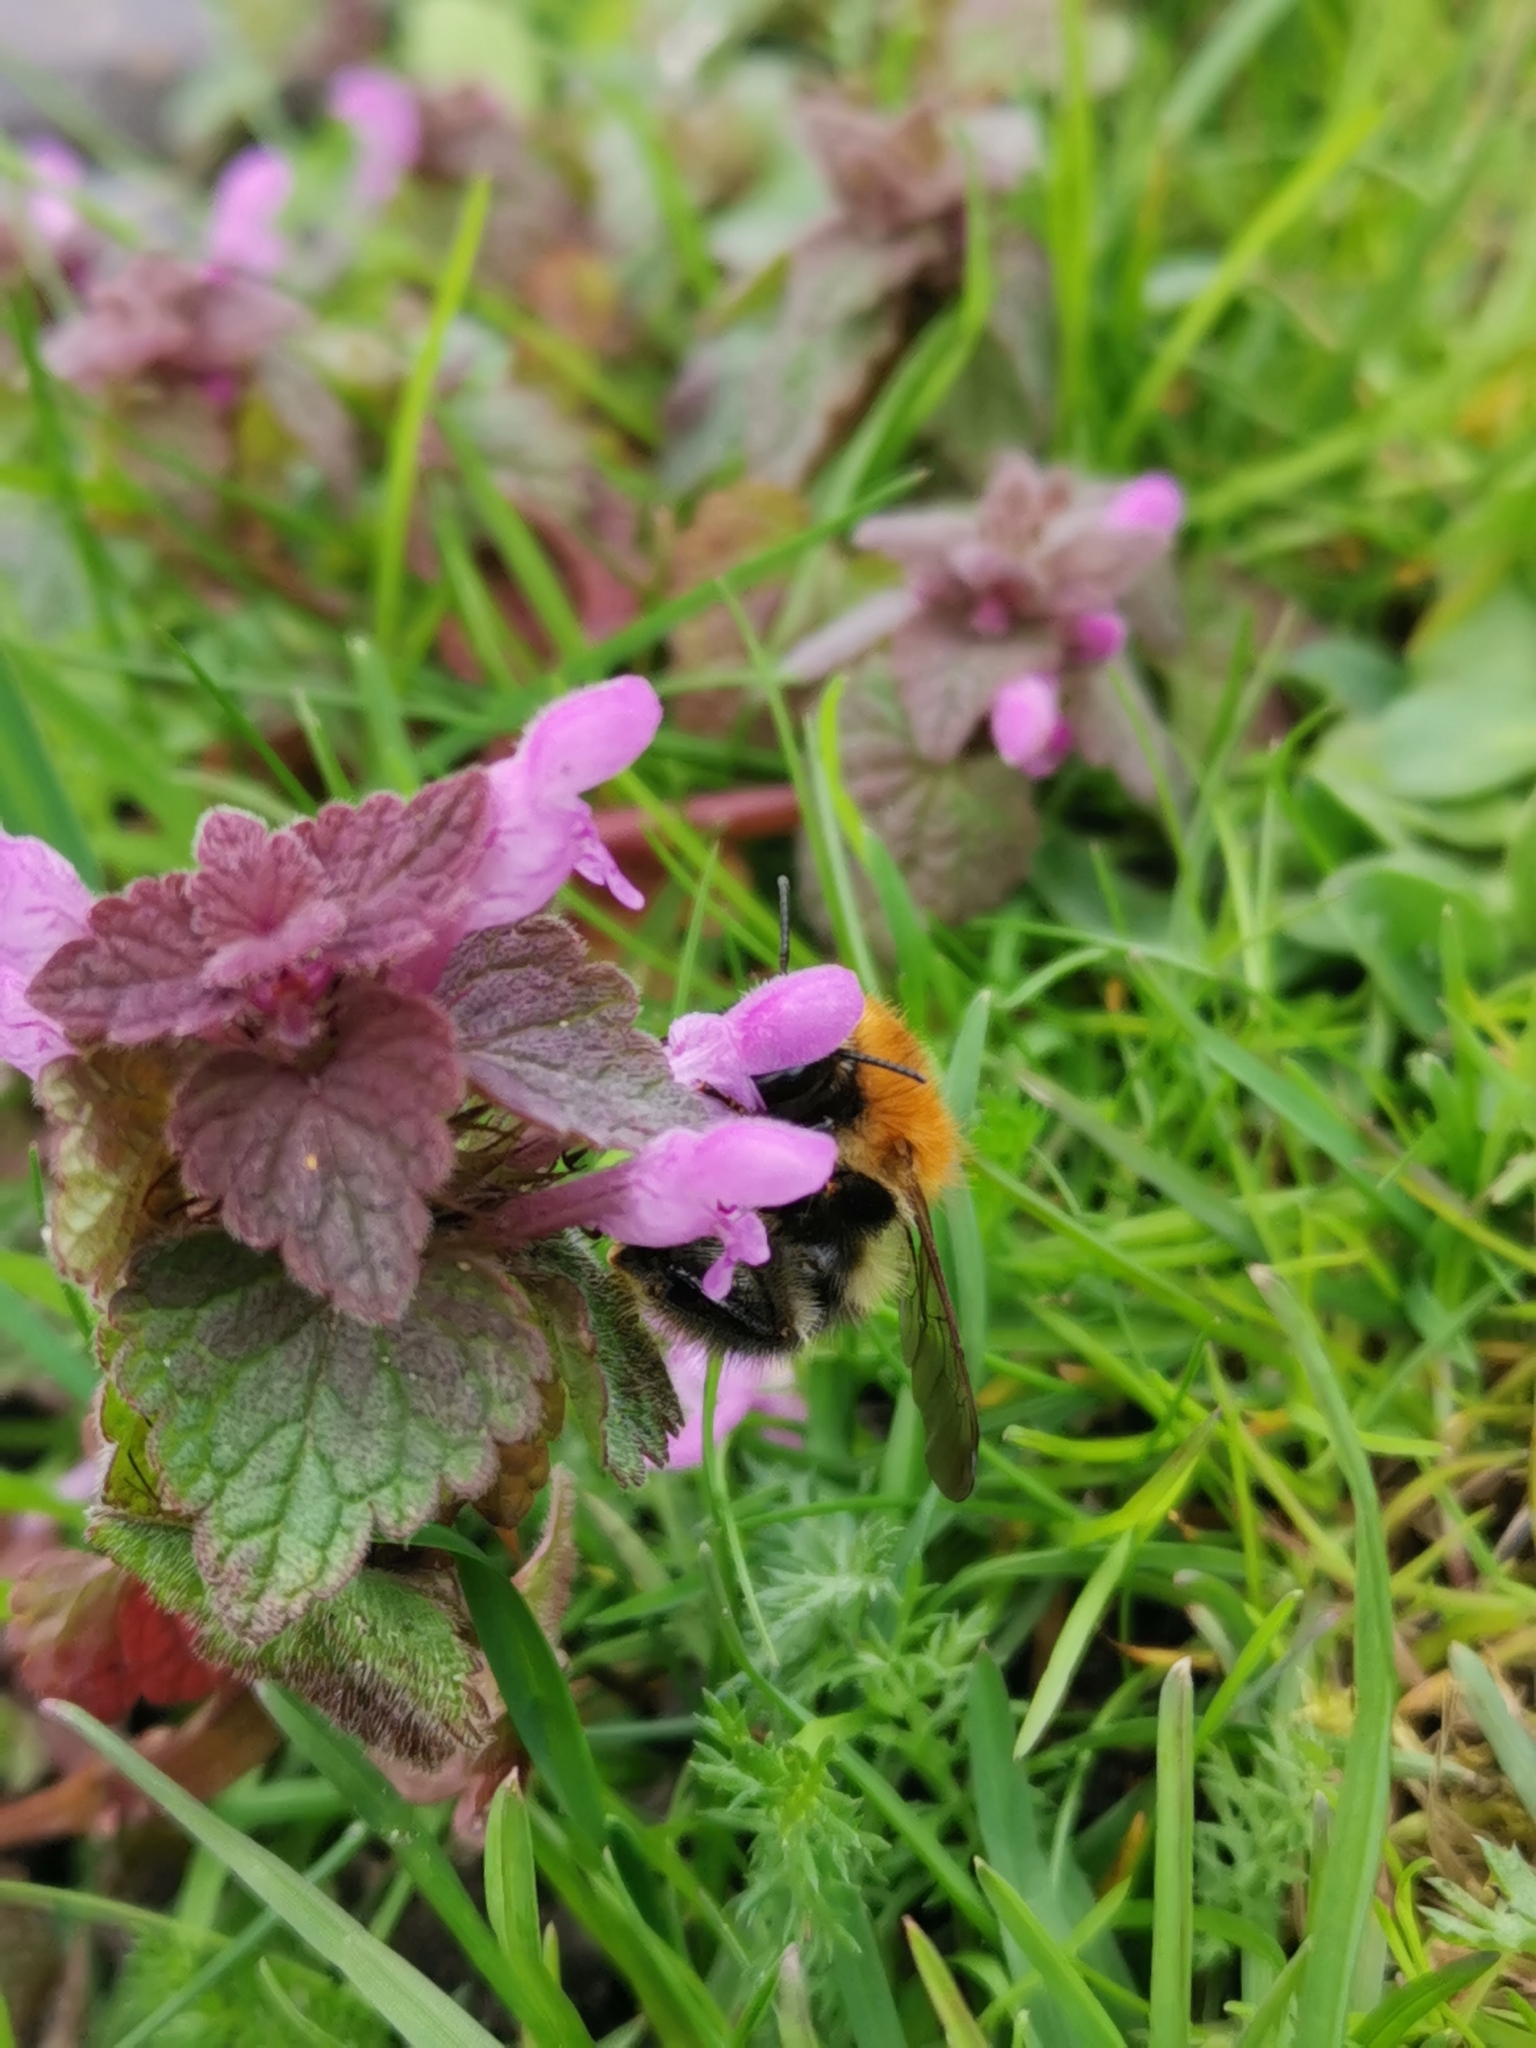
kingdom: Animalia
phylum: Arthropoda
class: Insecta
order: Hymenoptera
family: Apidae
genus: Bombus
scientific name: Bombus pascuorum
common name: Common carder bee
